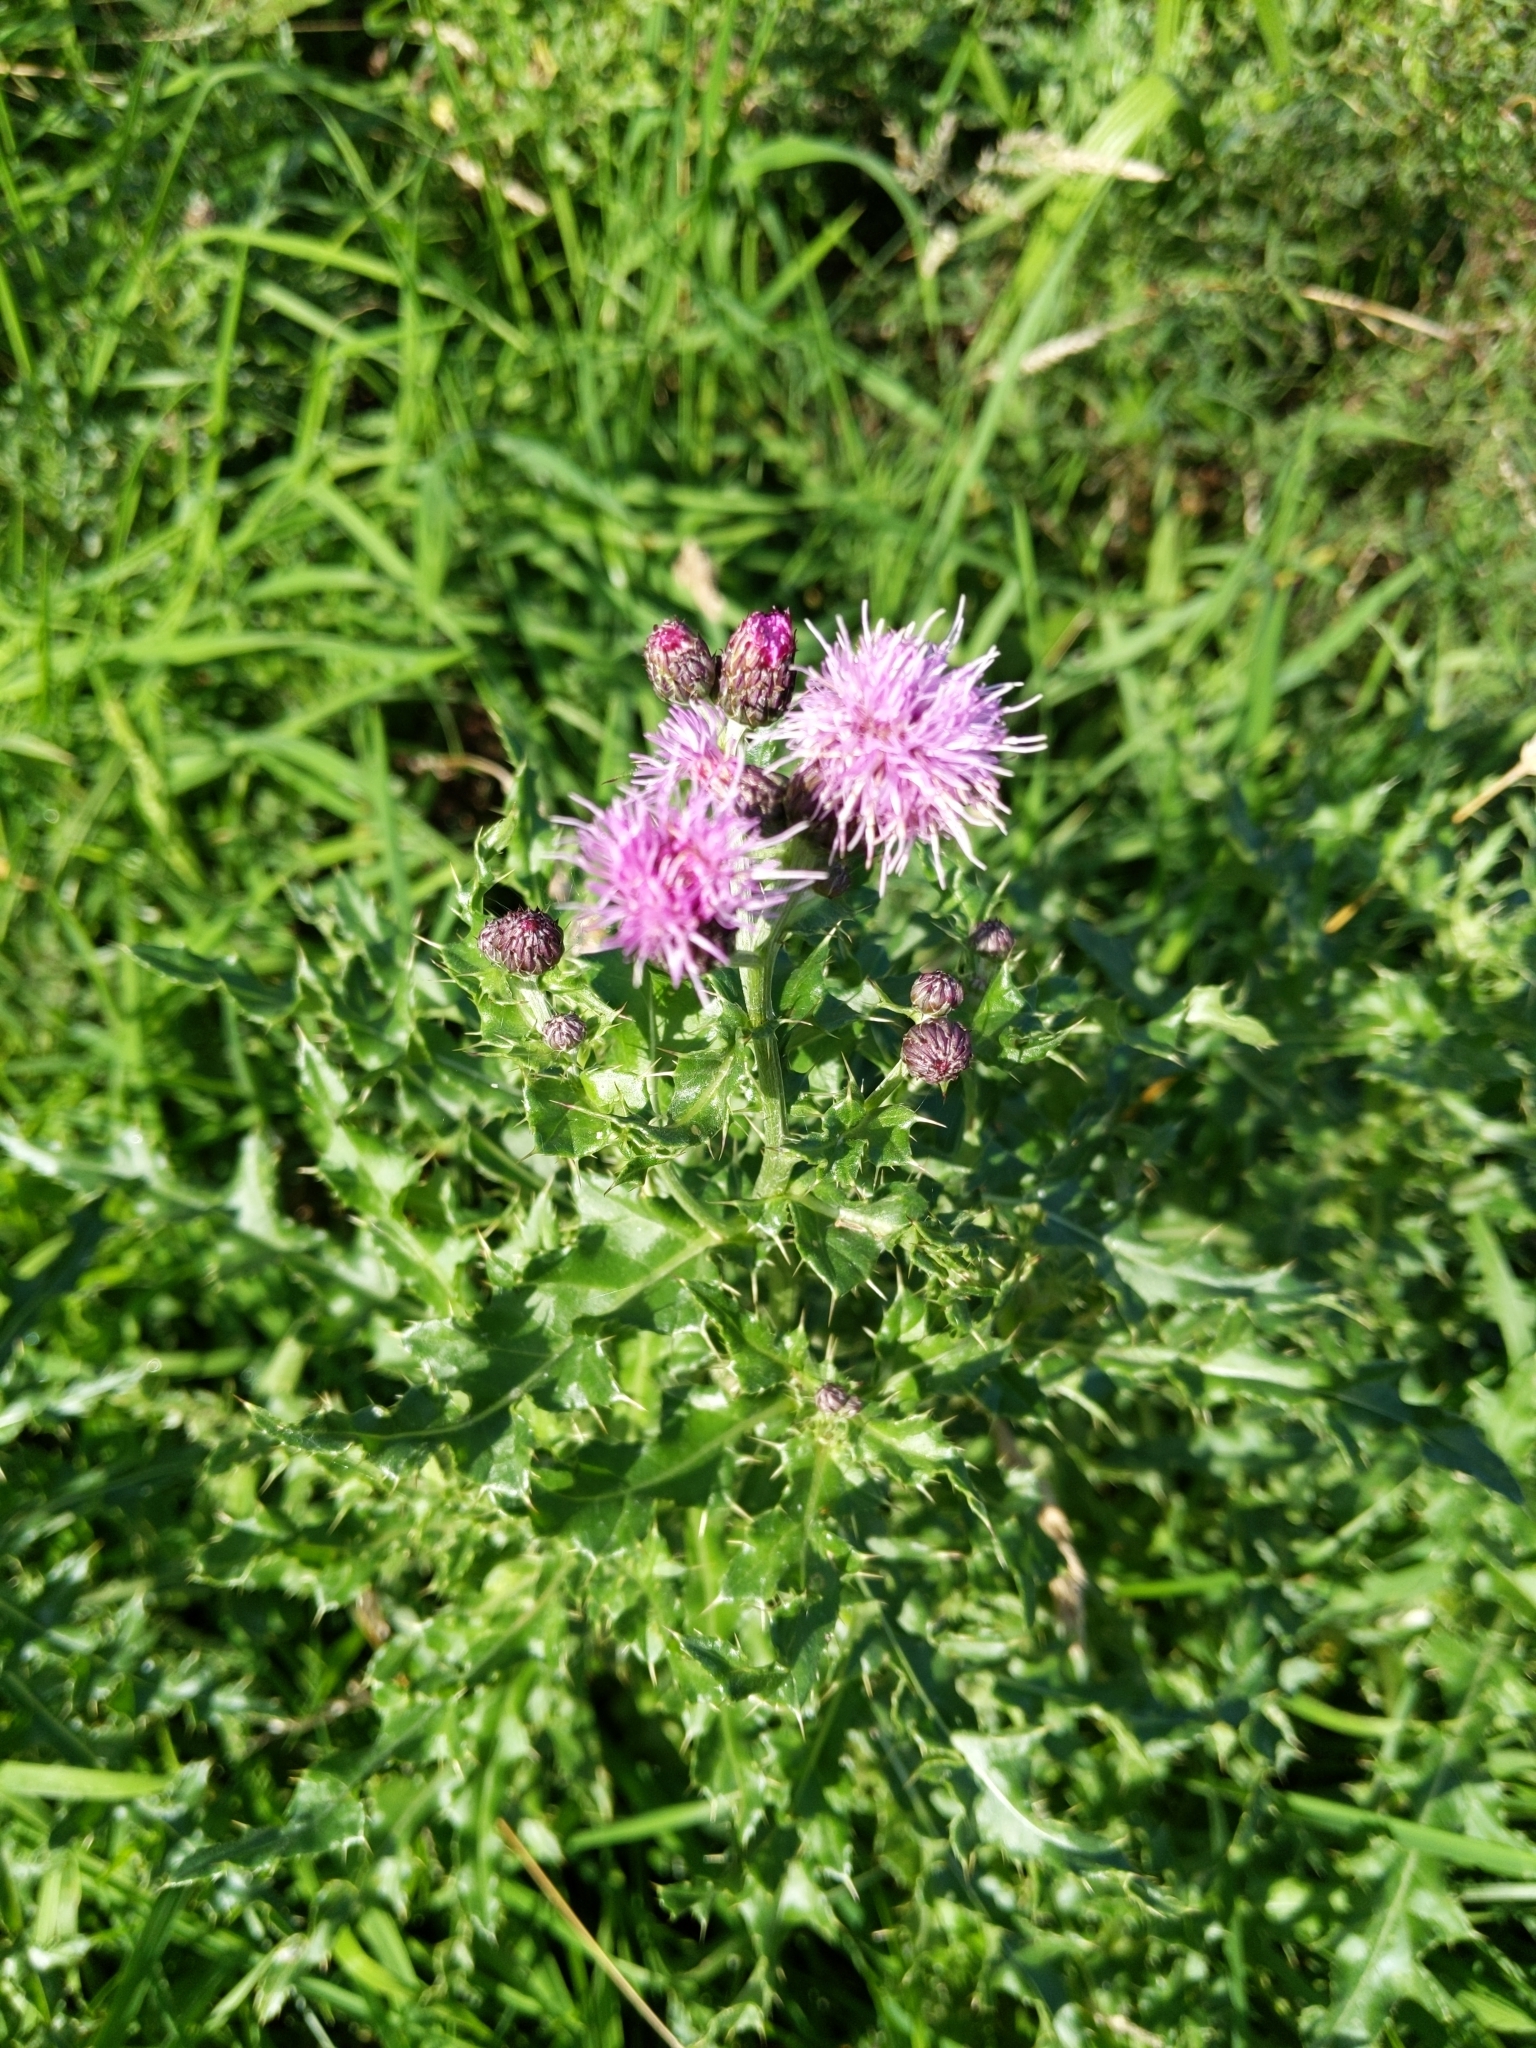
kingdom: Plantae
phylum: Tracheophyta
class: Magnoliopsida
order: Asterales
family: Asteraceae
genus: Cirsium
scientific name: Cirsium arvense
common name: Creeping thistle
